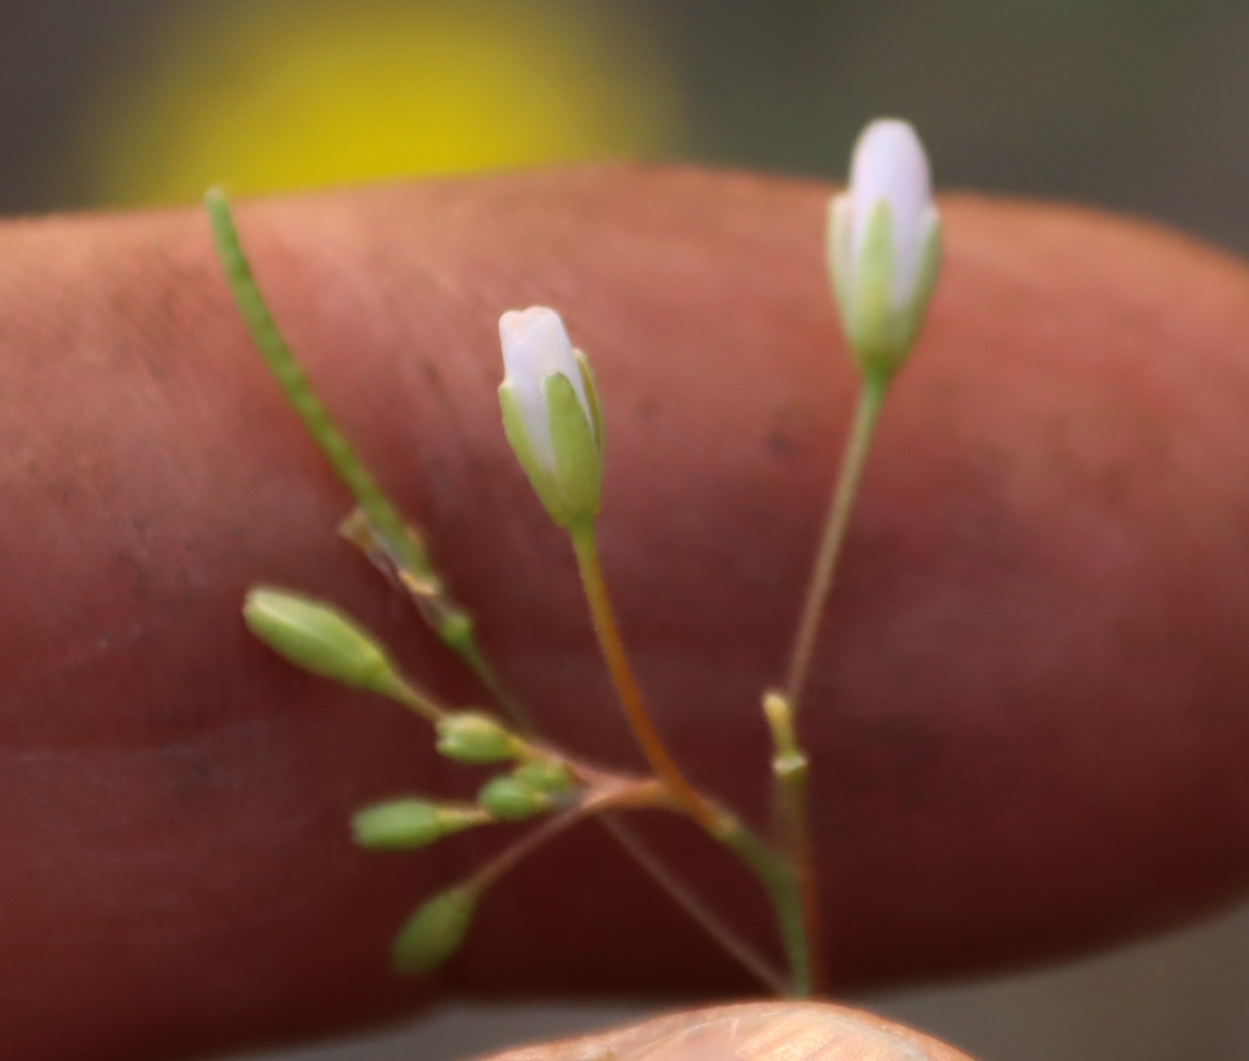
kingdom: Plantae
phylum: Tracheophyta
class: Magnoliopsida
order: Brassicales
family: Brassicaceae
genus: Heliophila
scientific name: Heliophila variabilis
